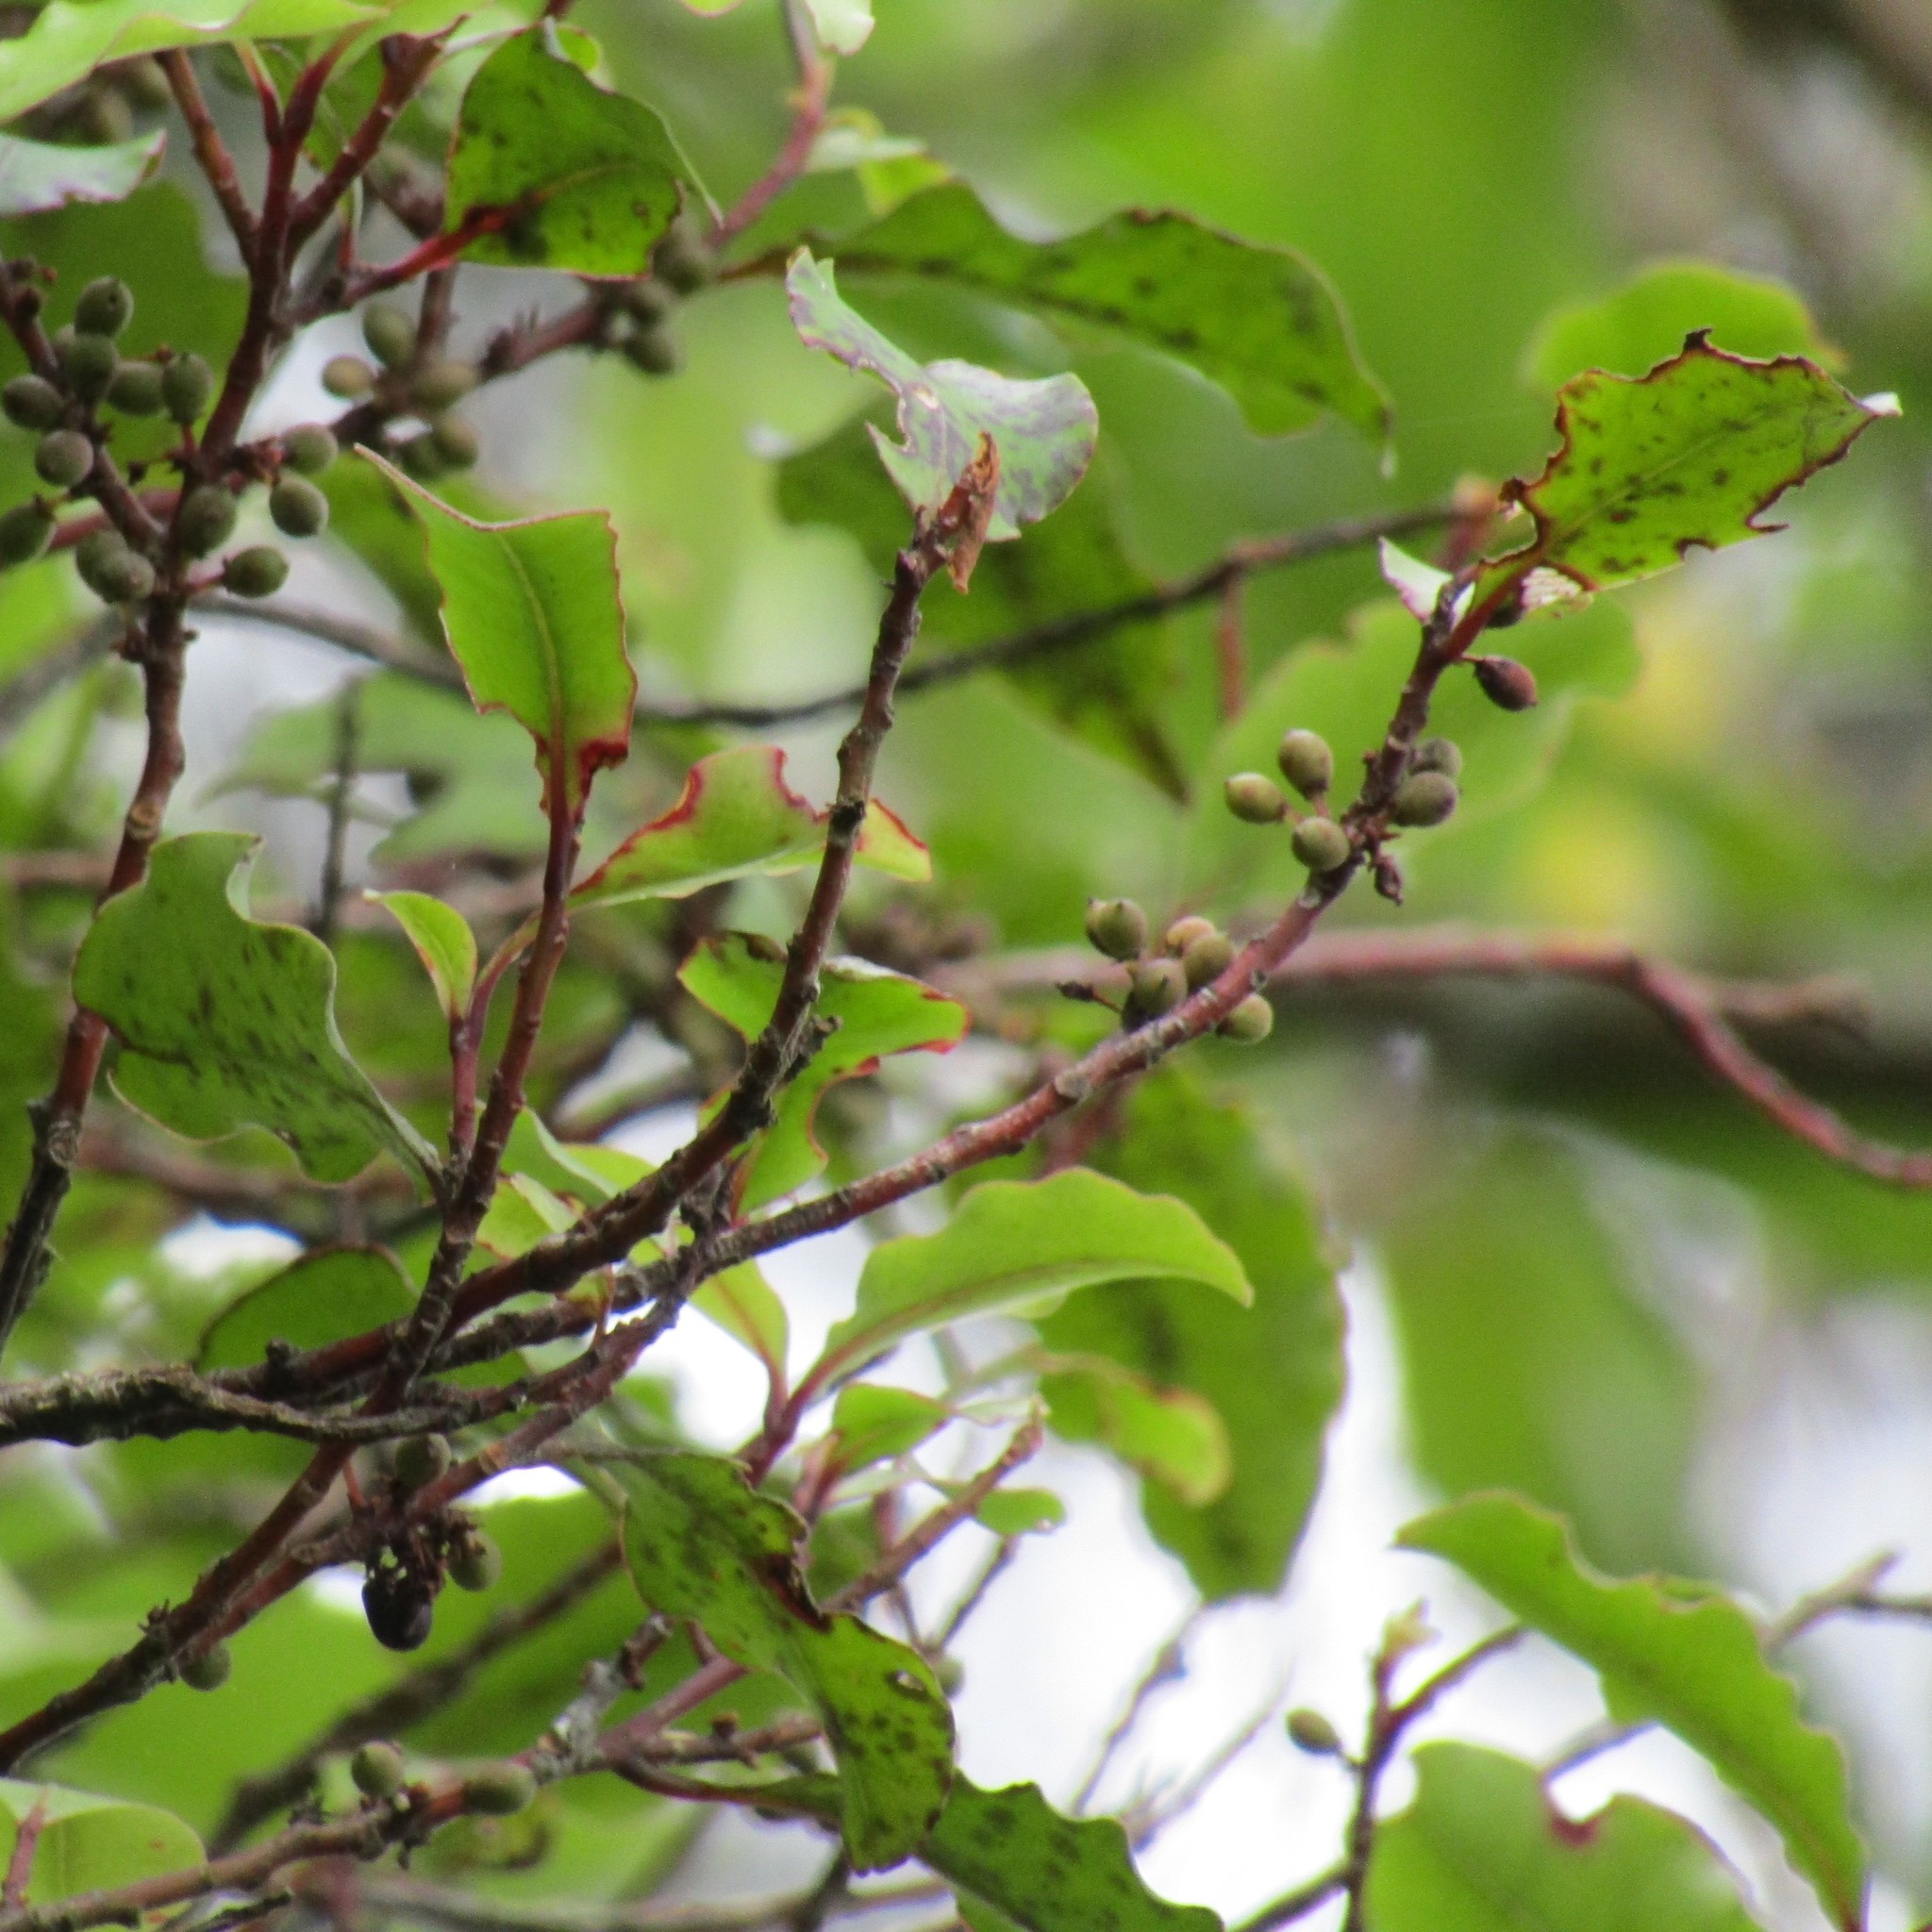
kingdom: Plantae
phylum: Tracheophyta
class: Magnoliopsida
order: Ericales
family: Primulaceae
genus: Myrsine
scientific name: Myrsine australis
